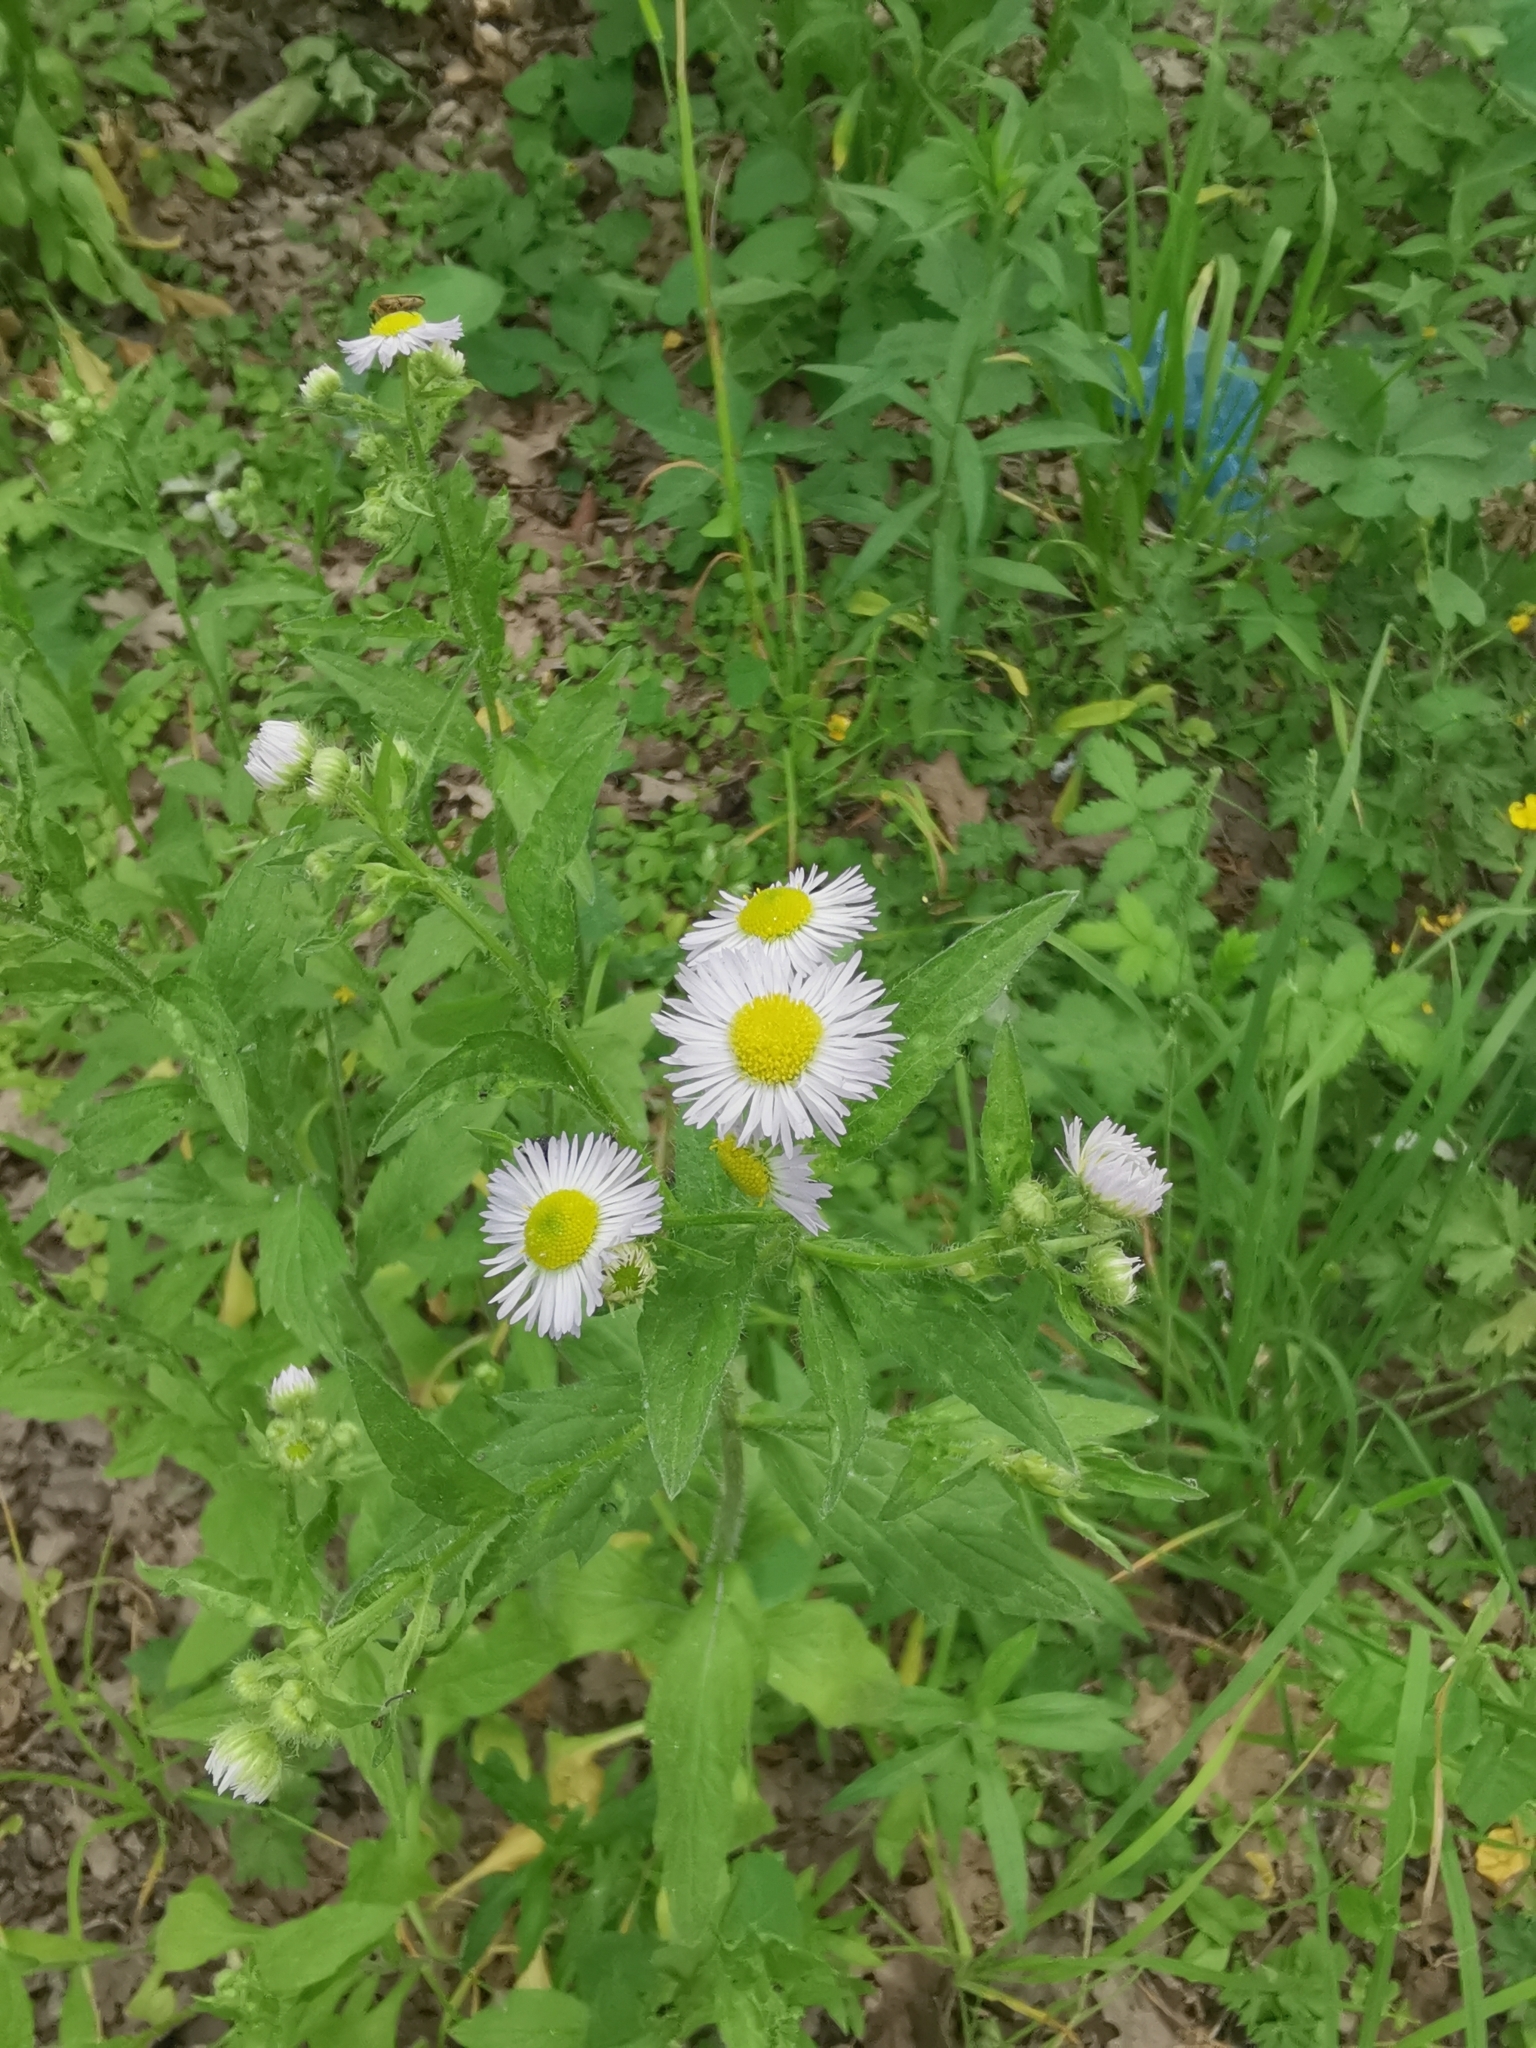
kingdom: Plantae
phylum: Tracheophyta
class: Magnoliopsida
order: Asterales
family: Asteraceae
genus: Erigeron
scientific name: Erigeron annuus
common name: Tall fleabane
